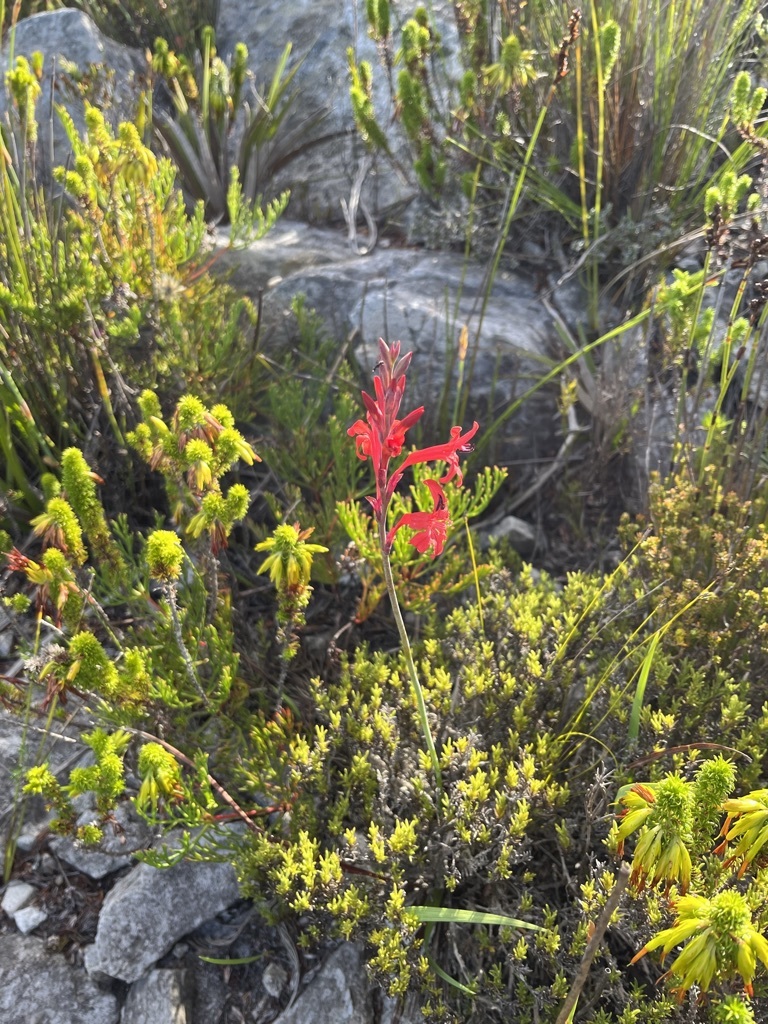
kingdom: Plantae
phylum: Tracheophyta
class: Liliopsida
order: Asparagales
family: Iridaceae
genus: Tritoniopsis
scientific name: Tritoniopsis pulchra
